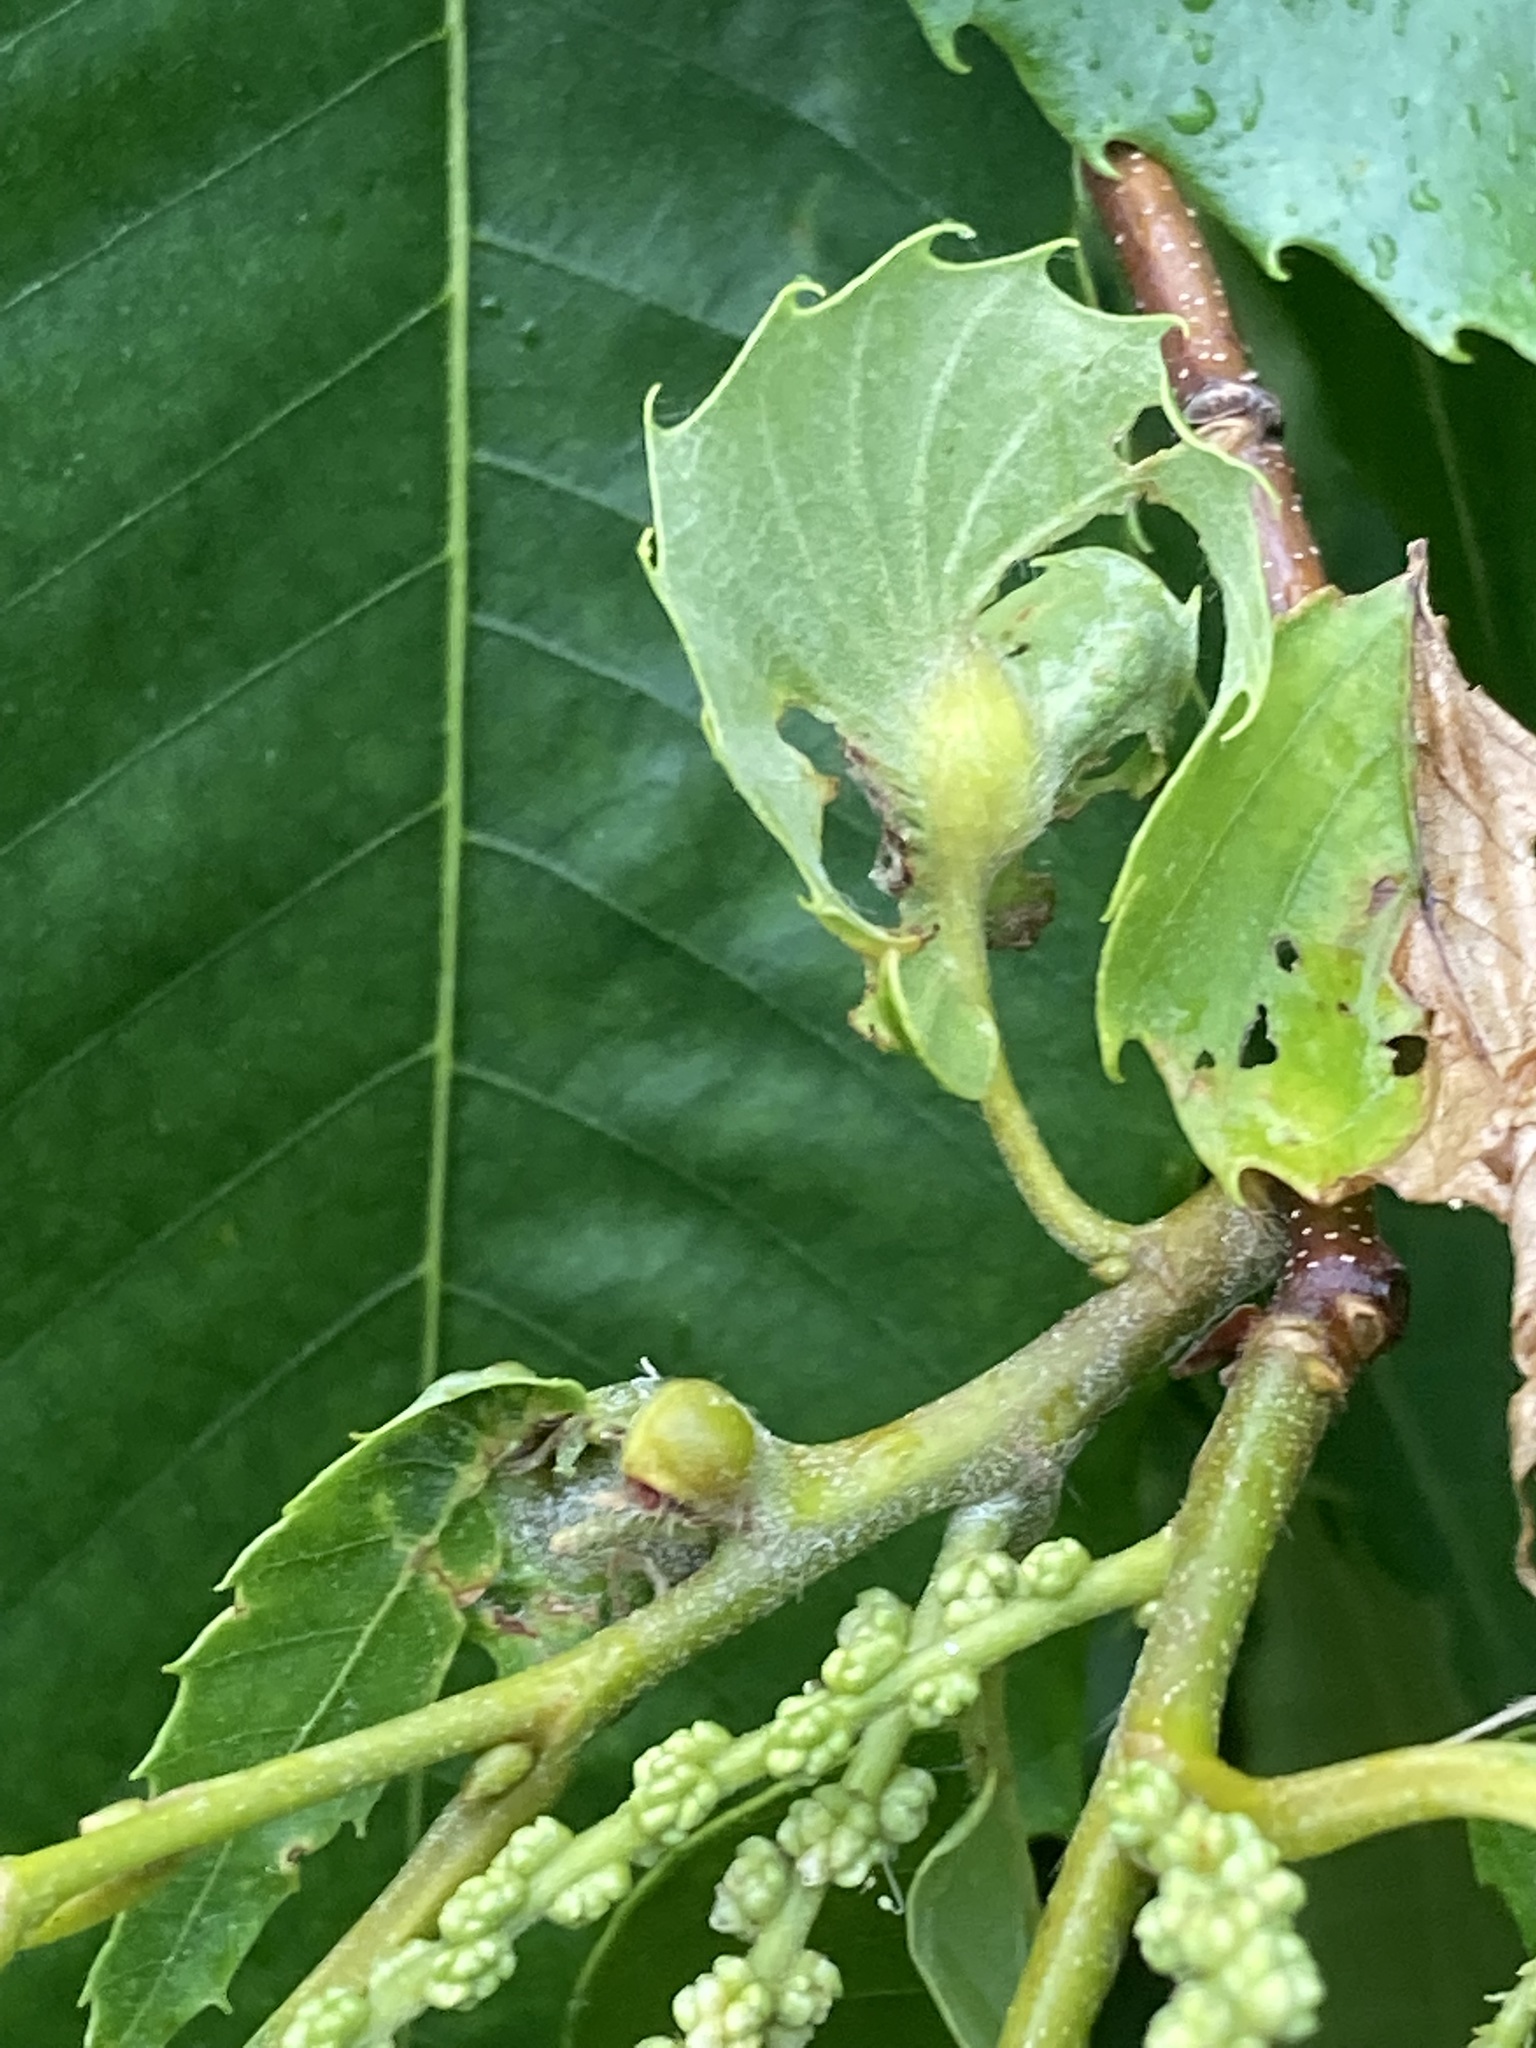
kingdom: Animalia
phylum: Arthropoda
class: Insecta
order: Hymenoptera
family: Cynipidae
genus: Dryocosmus
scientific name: Dryocosmus kuriphilus
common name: Asian chestnut gall wasp
